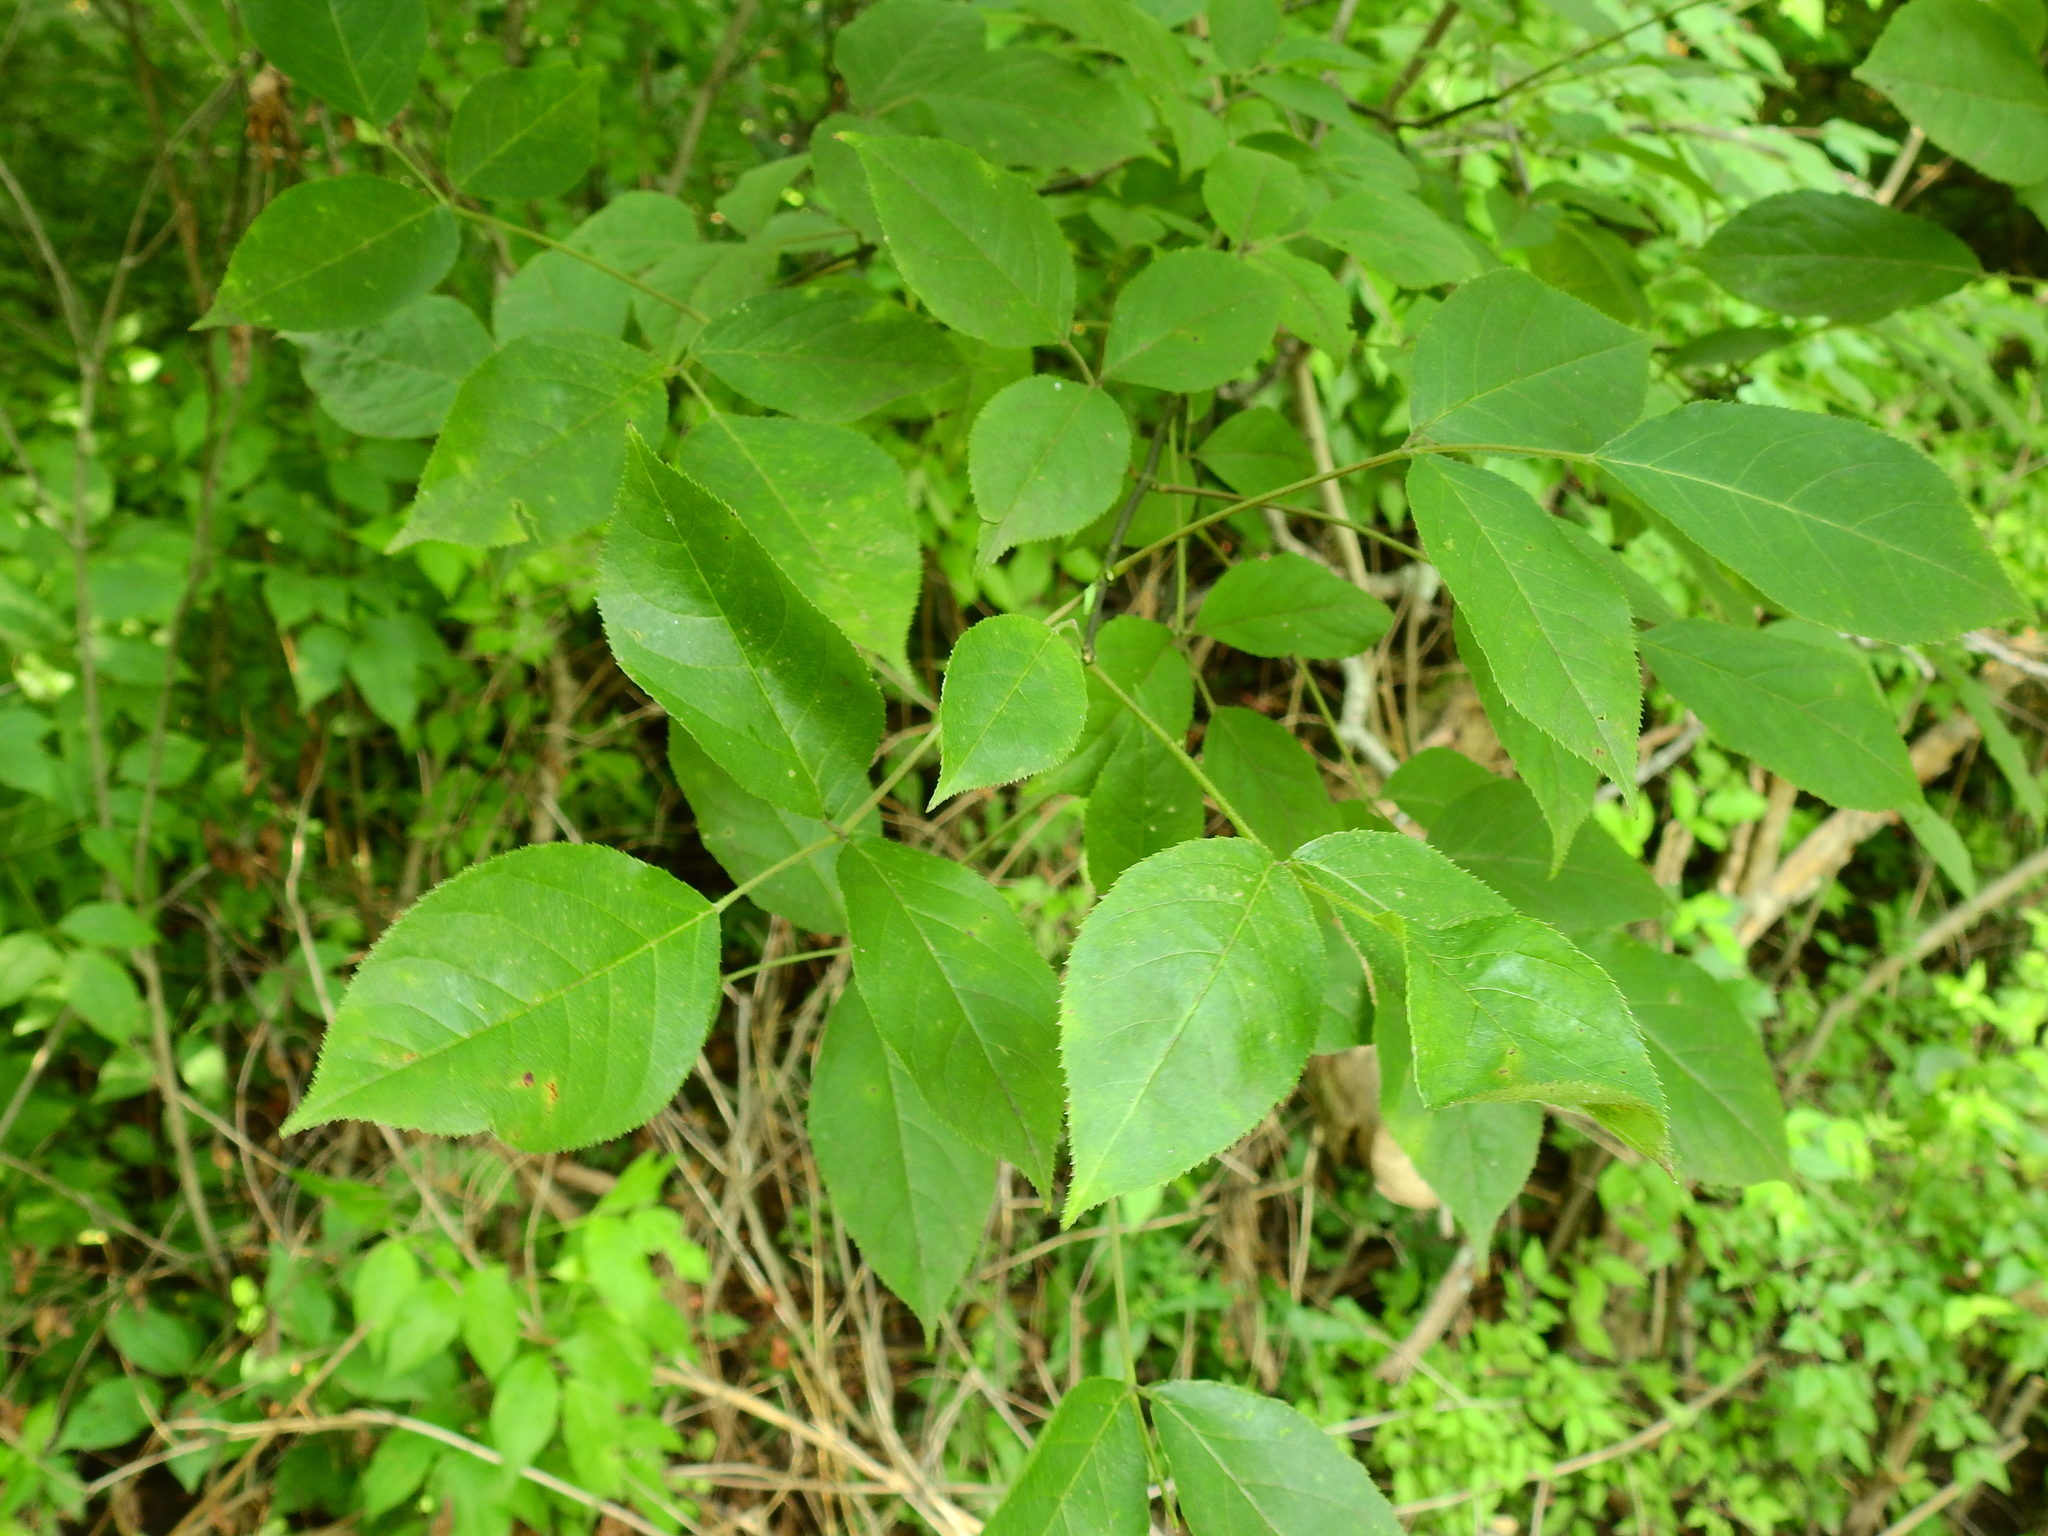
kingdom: Plantae
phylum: Tracheophyta
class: Magnoliopsida
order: Crossosomatales
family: Staphyleaceae
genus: Staphylea
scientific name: Staphylea trifolia
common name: American bladdernut
